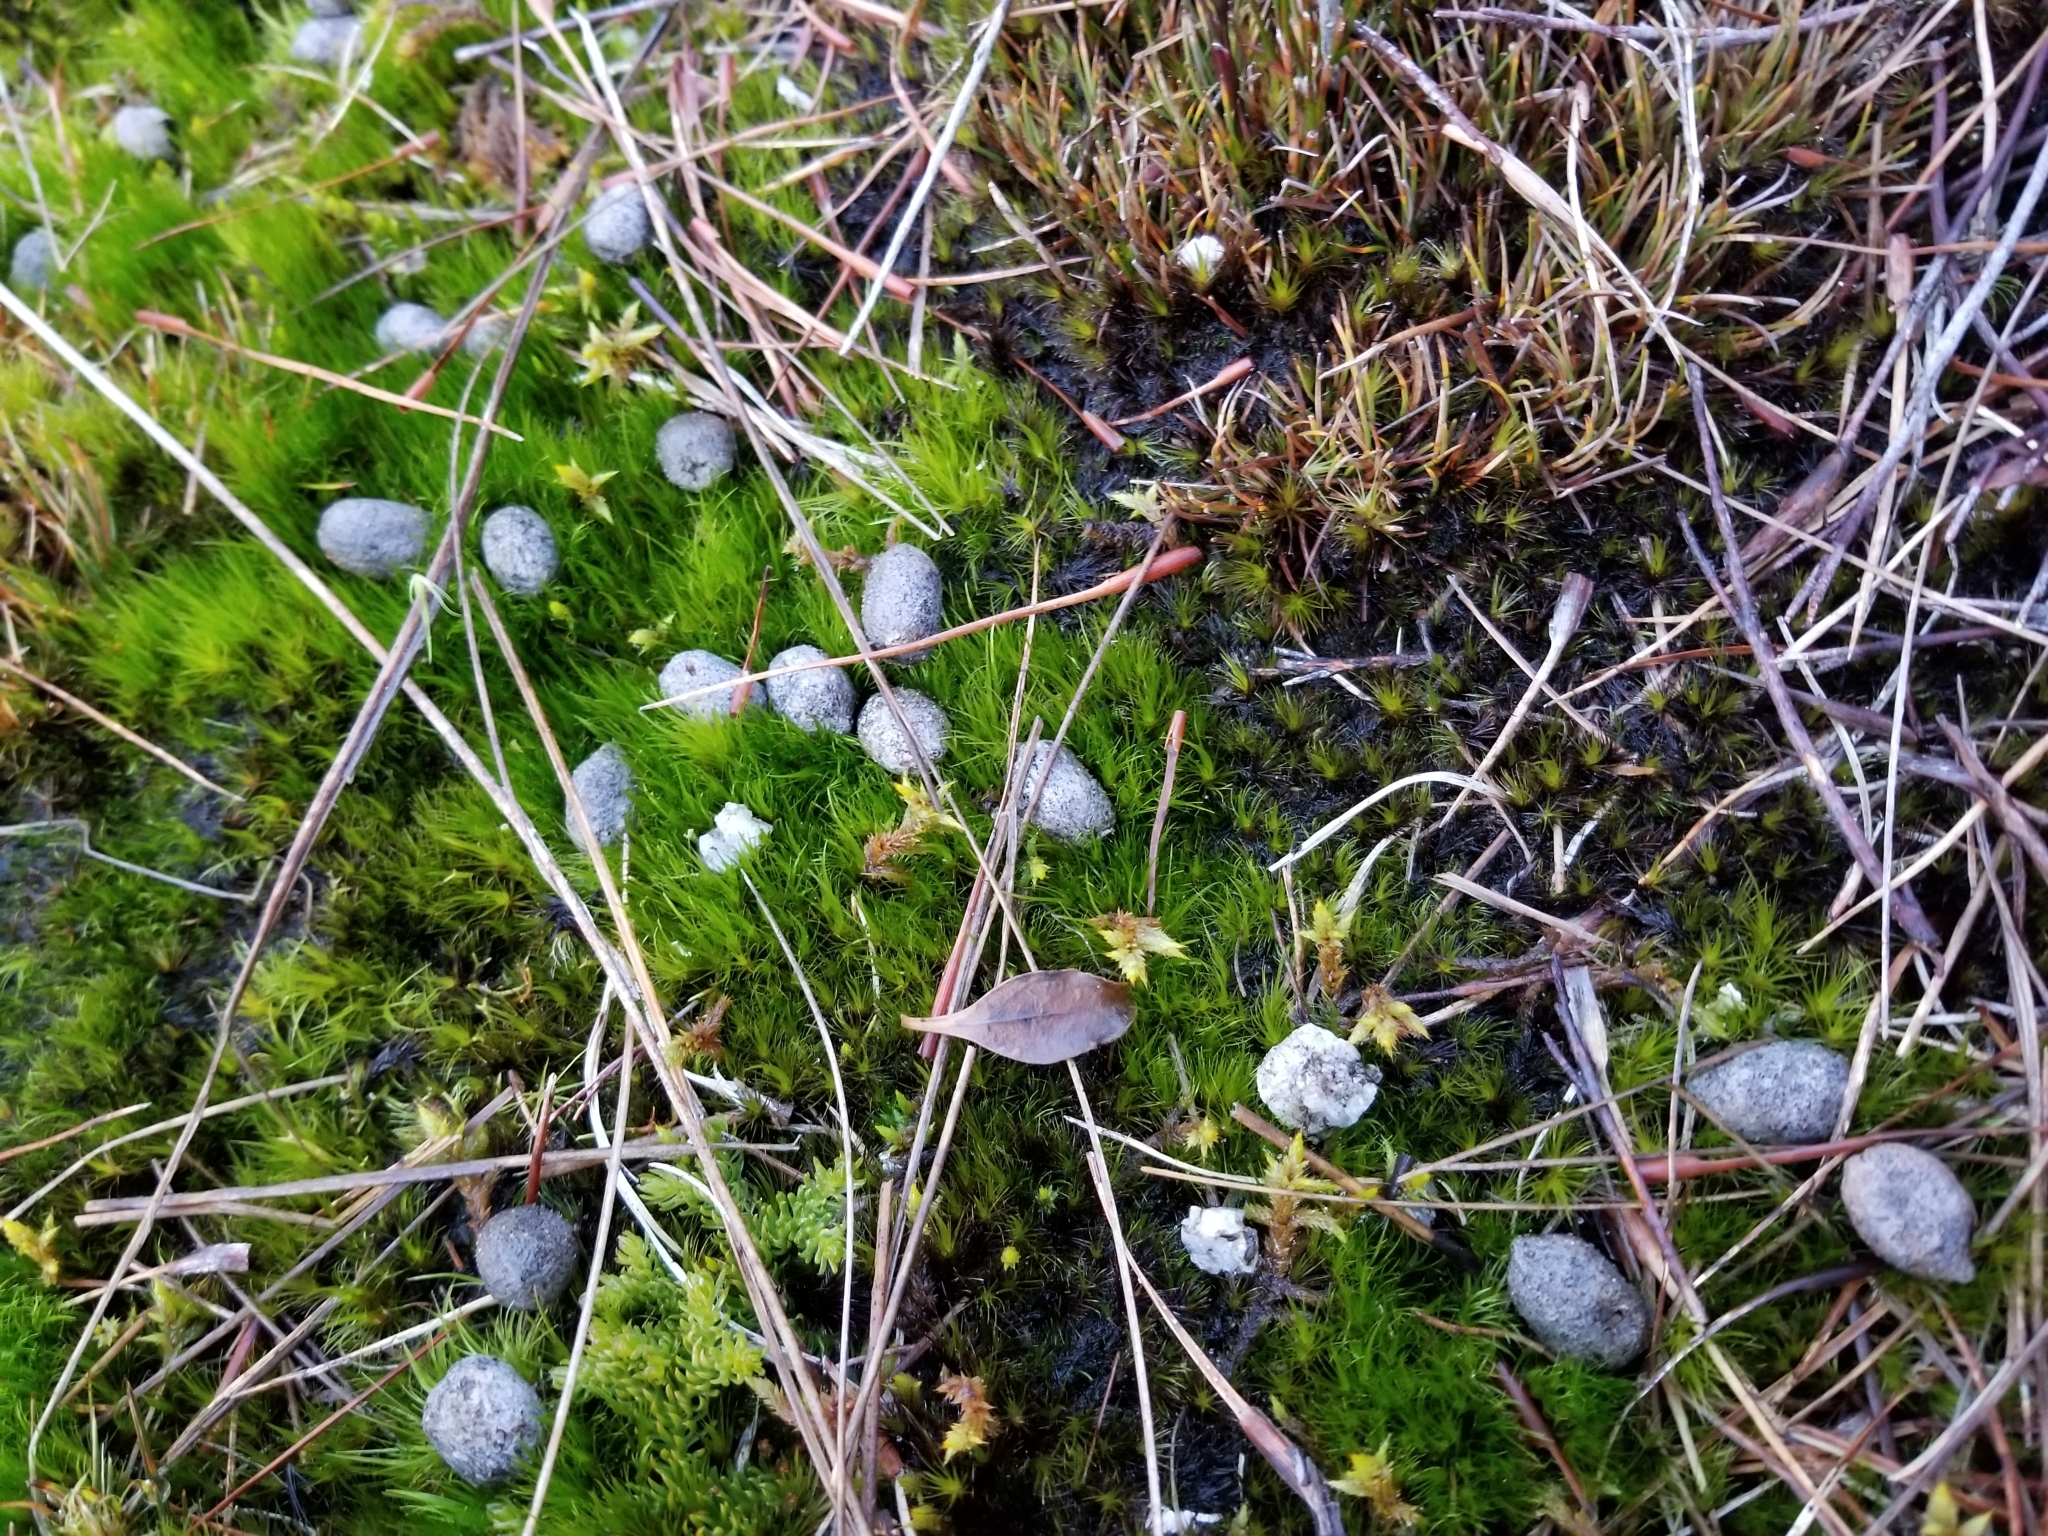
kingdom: Animalia
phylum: Chordata
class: Mammalia
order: Artiodactyla
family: Bovidae
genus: Capra
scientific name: Capra hircus
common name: Domestic goat
